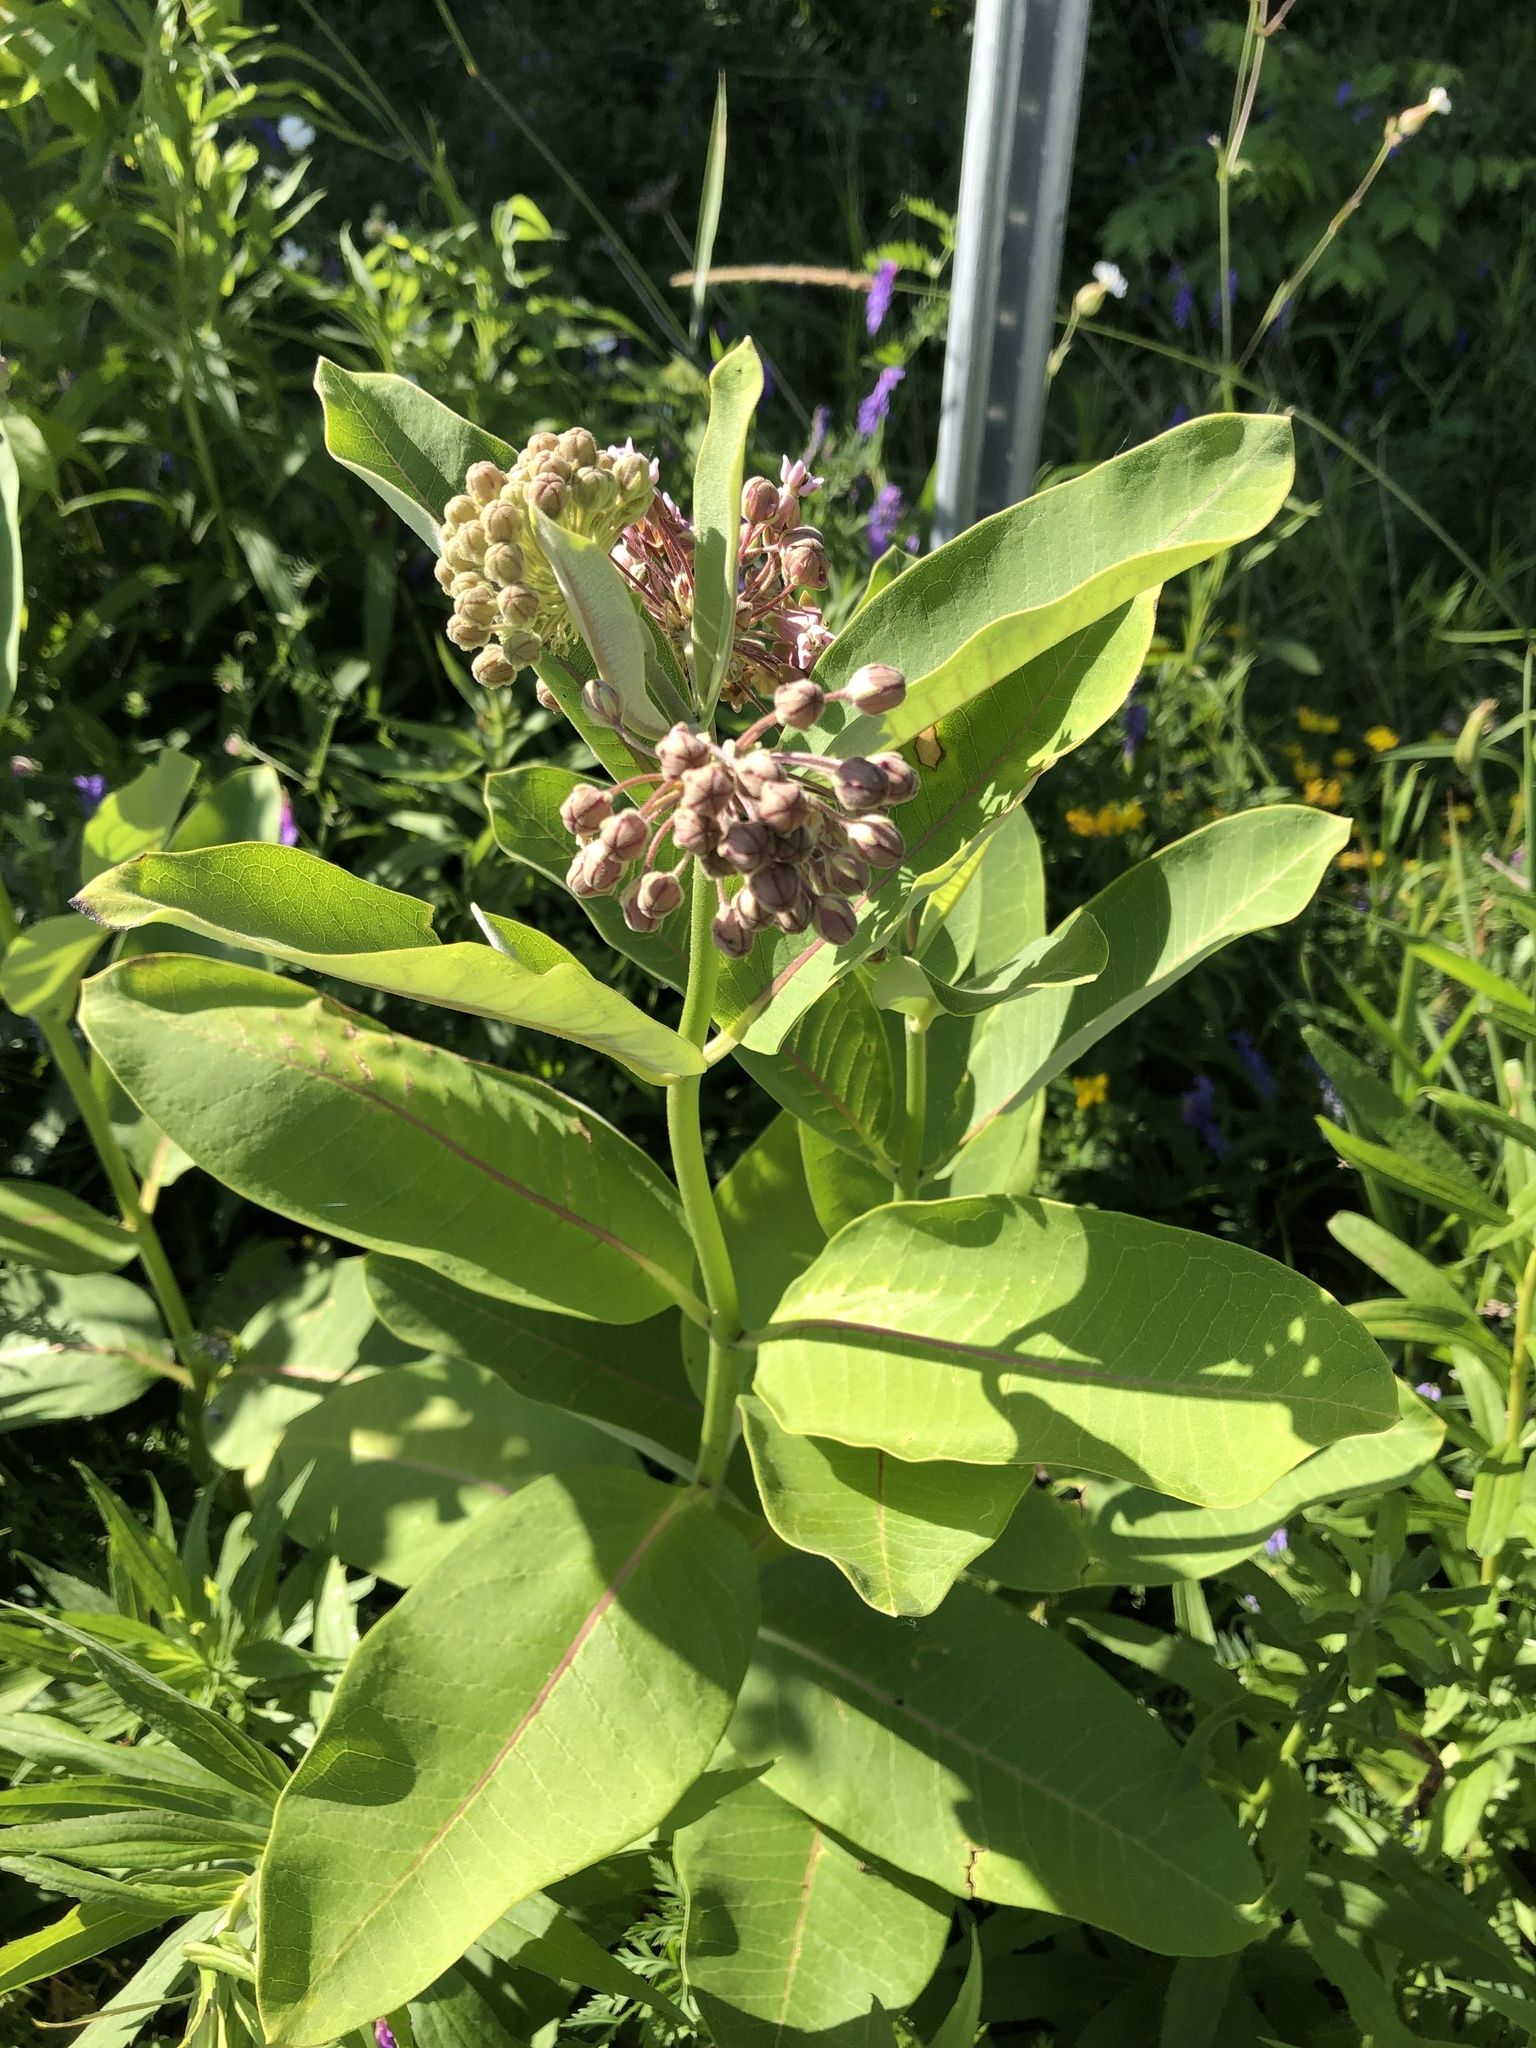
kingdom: Plantae
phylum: Tracheophyta
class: Magnoliopsida
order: Gentianales
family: Apocynaceae
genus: Asclepias
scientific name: Asclepias syriaca
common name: Common milkweed
